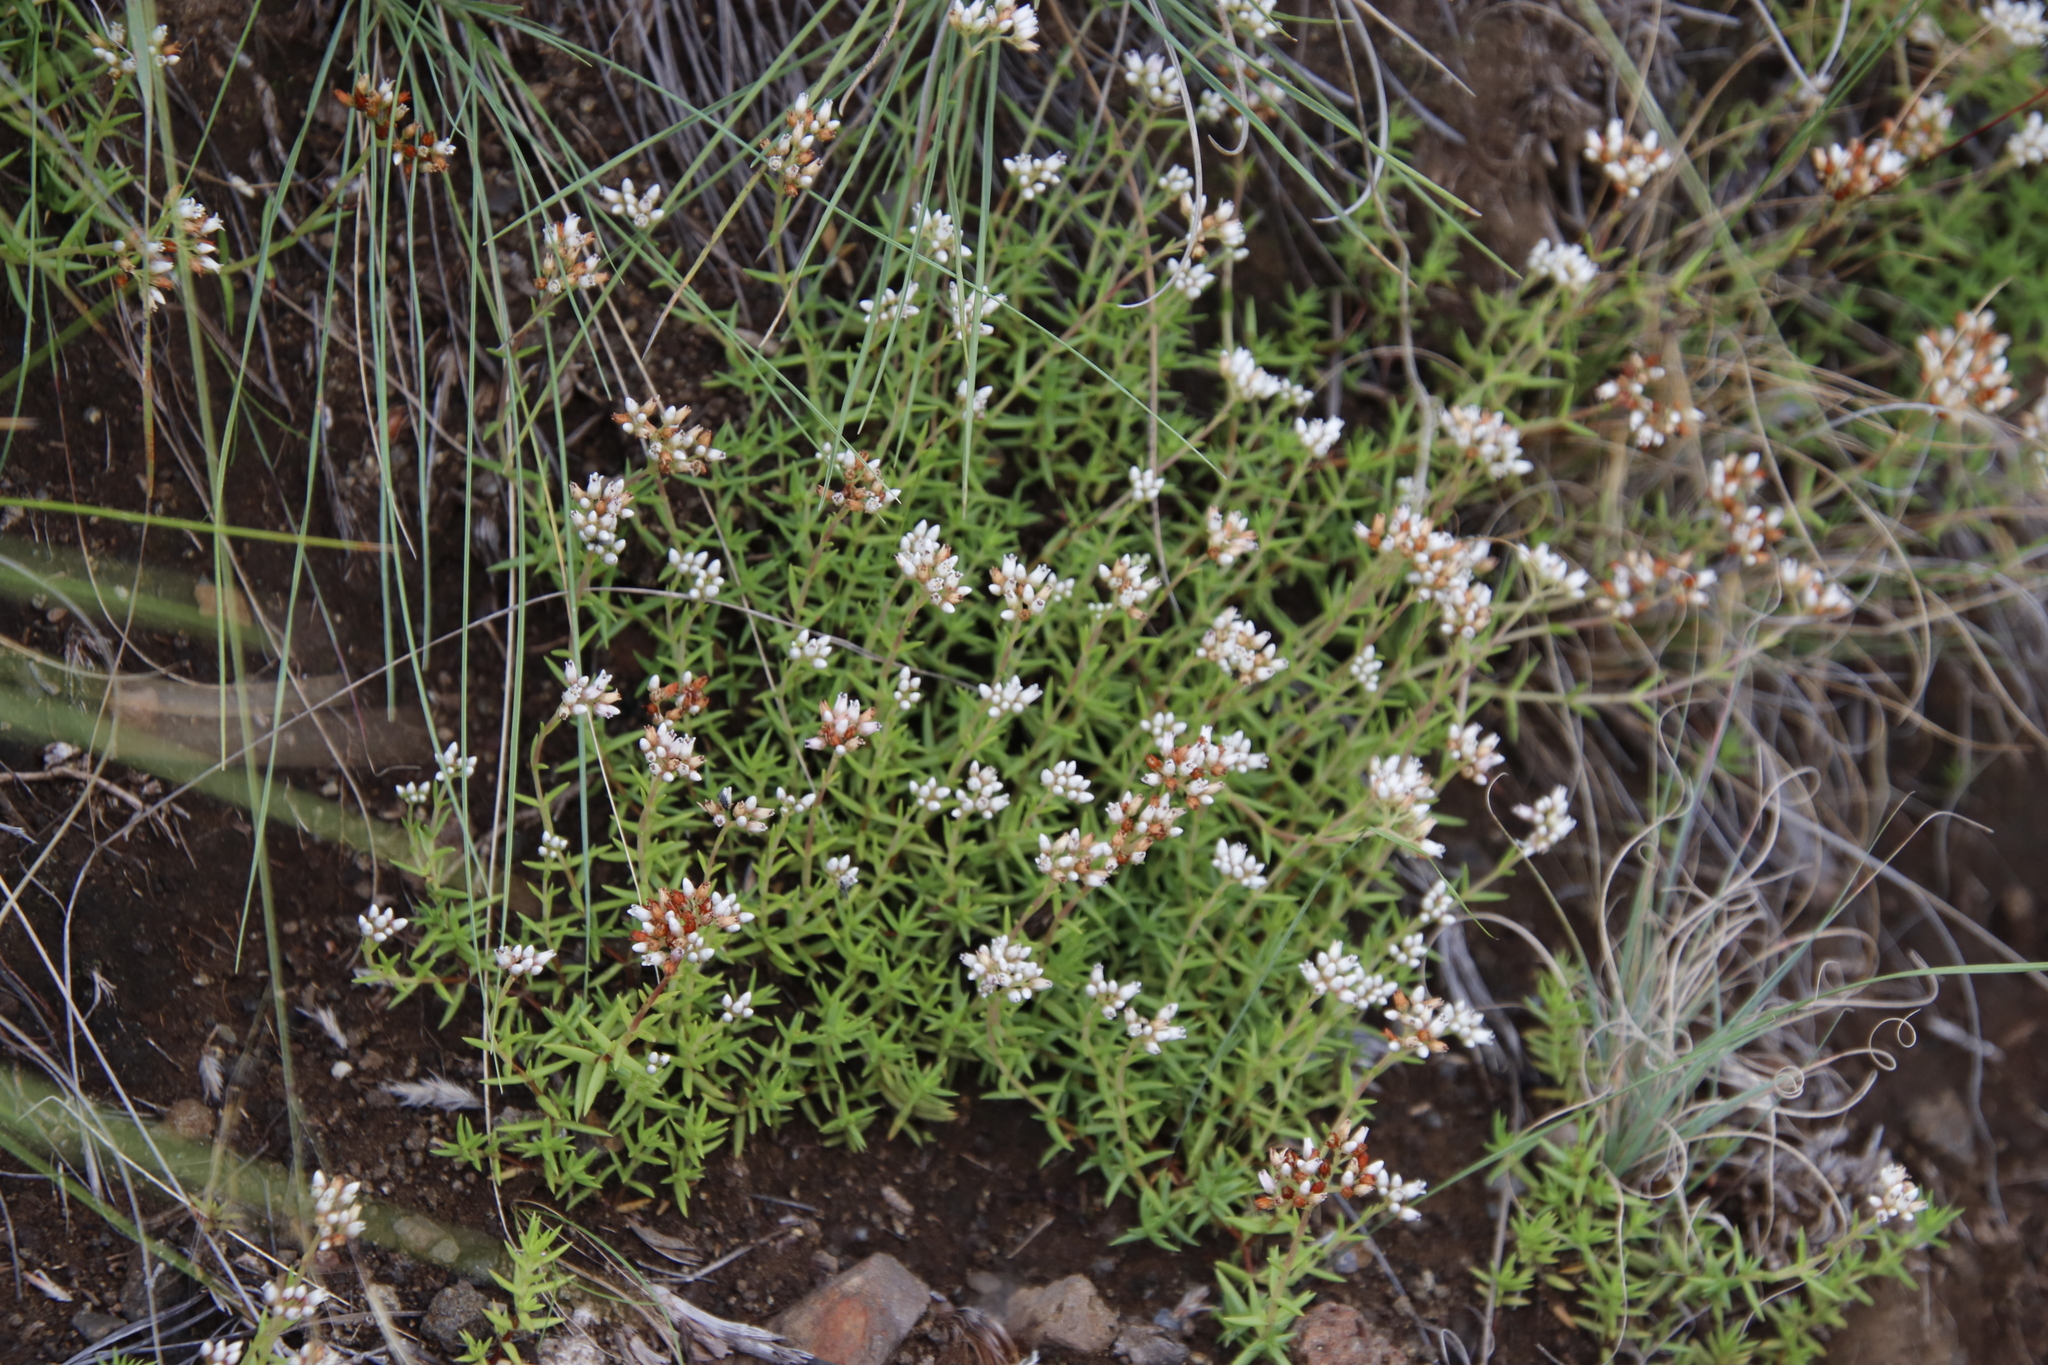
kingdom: Plantae
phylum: Tracheophyta
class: Magnoliopsida
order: Saxifragales
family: Crassulaceae
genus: Crassula
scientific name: Crassula dependens
